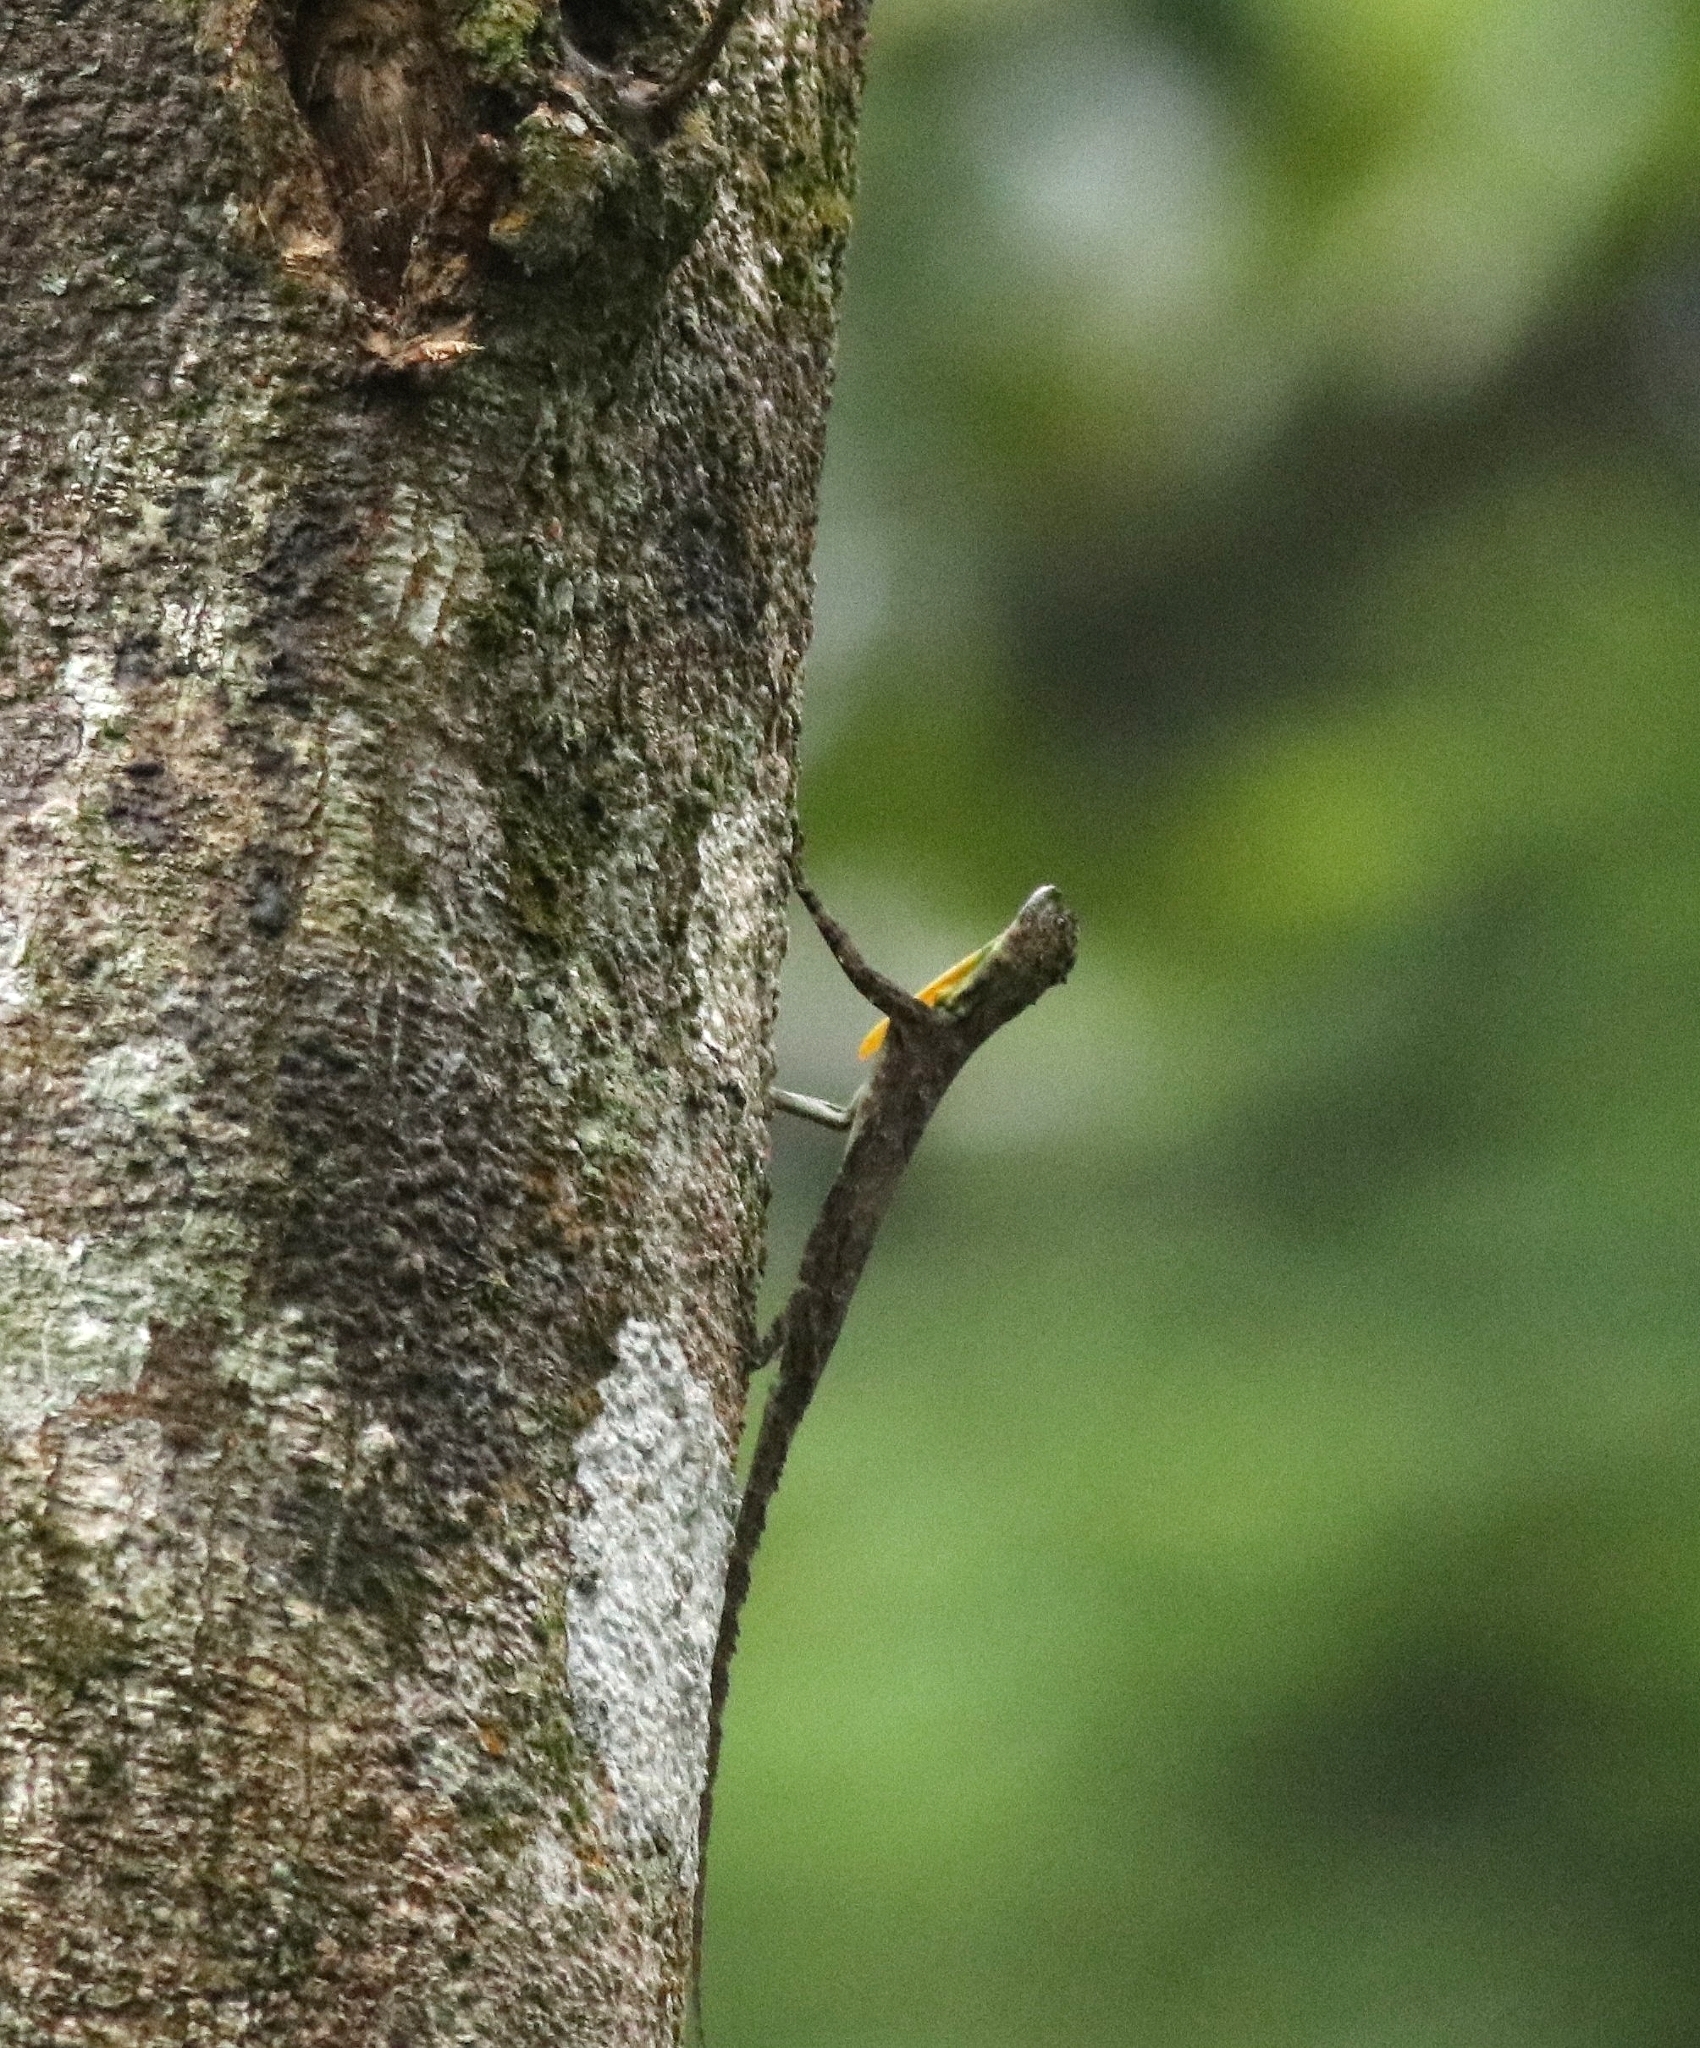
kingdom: Animalia
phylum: Chordata
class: Squamata
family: Agamidae
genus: Draco
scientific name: Draco dussumieri
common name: Southern flying lizard
